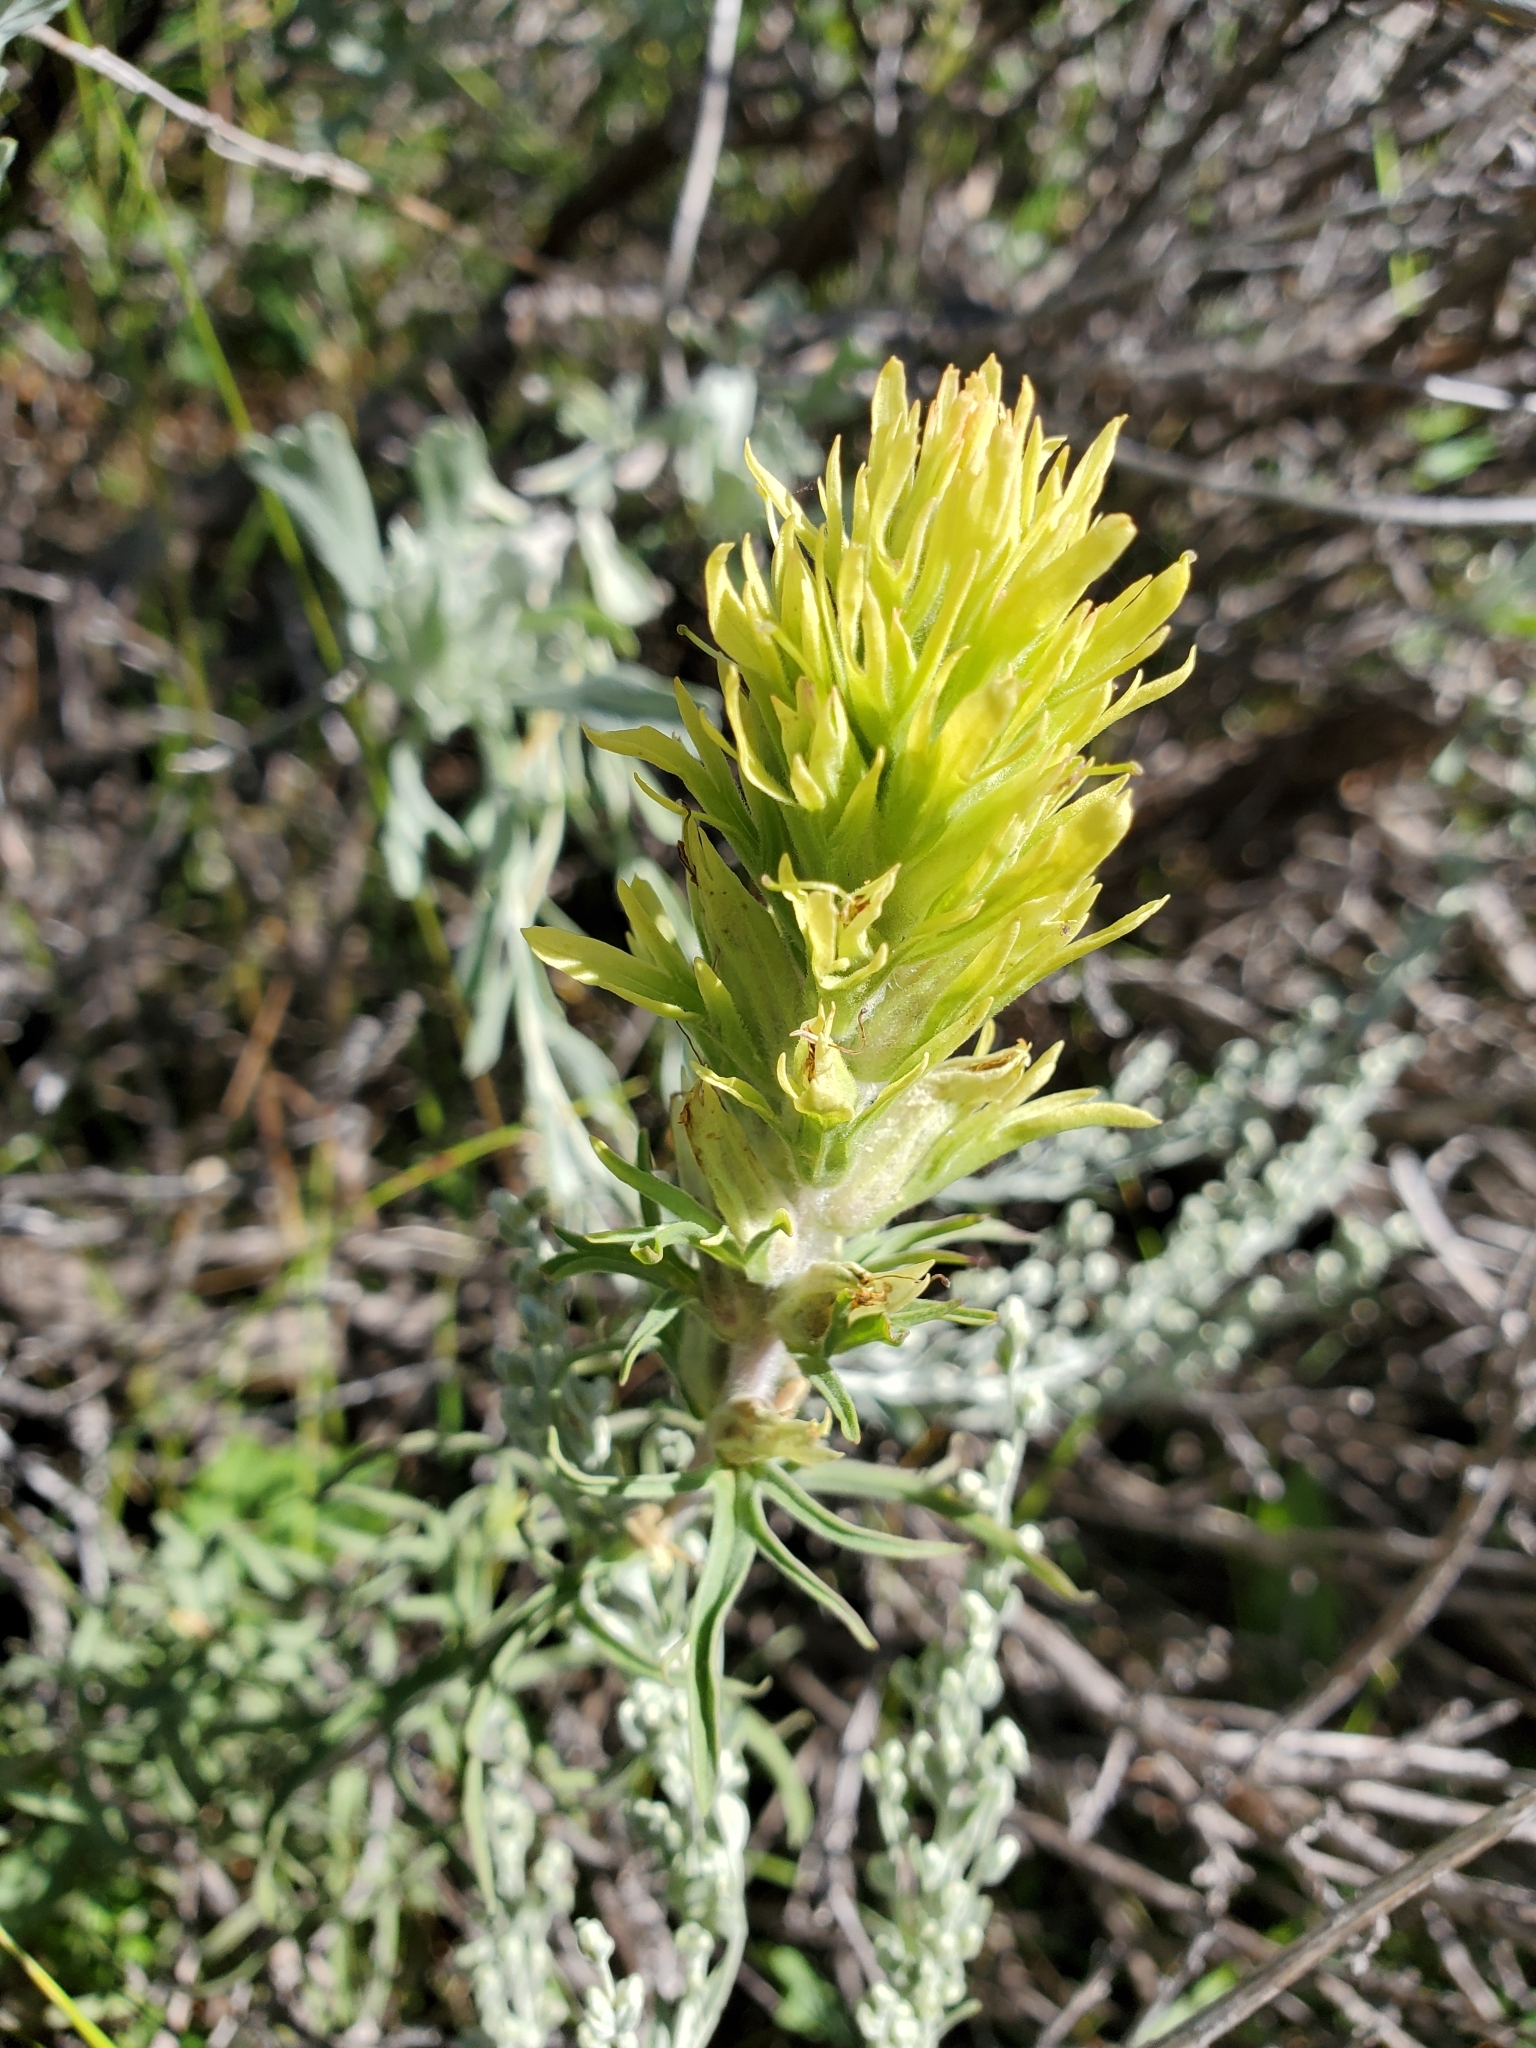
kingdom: Plantae
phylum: Tracheophyta
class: Magnoliopsida
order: Lamiales
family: Orobanchaceae
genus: Castilleja
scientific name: Castilleja cervina
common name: Deer paintbrush
